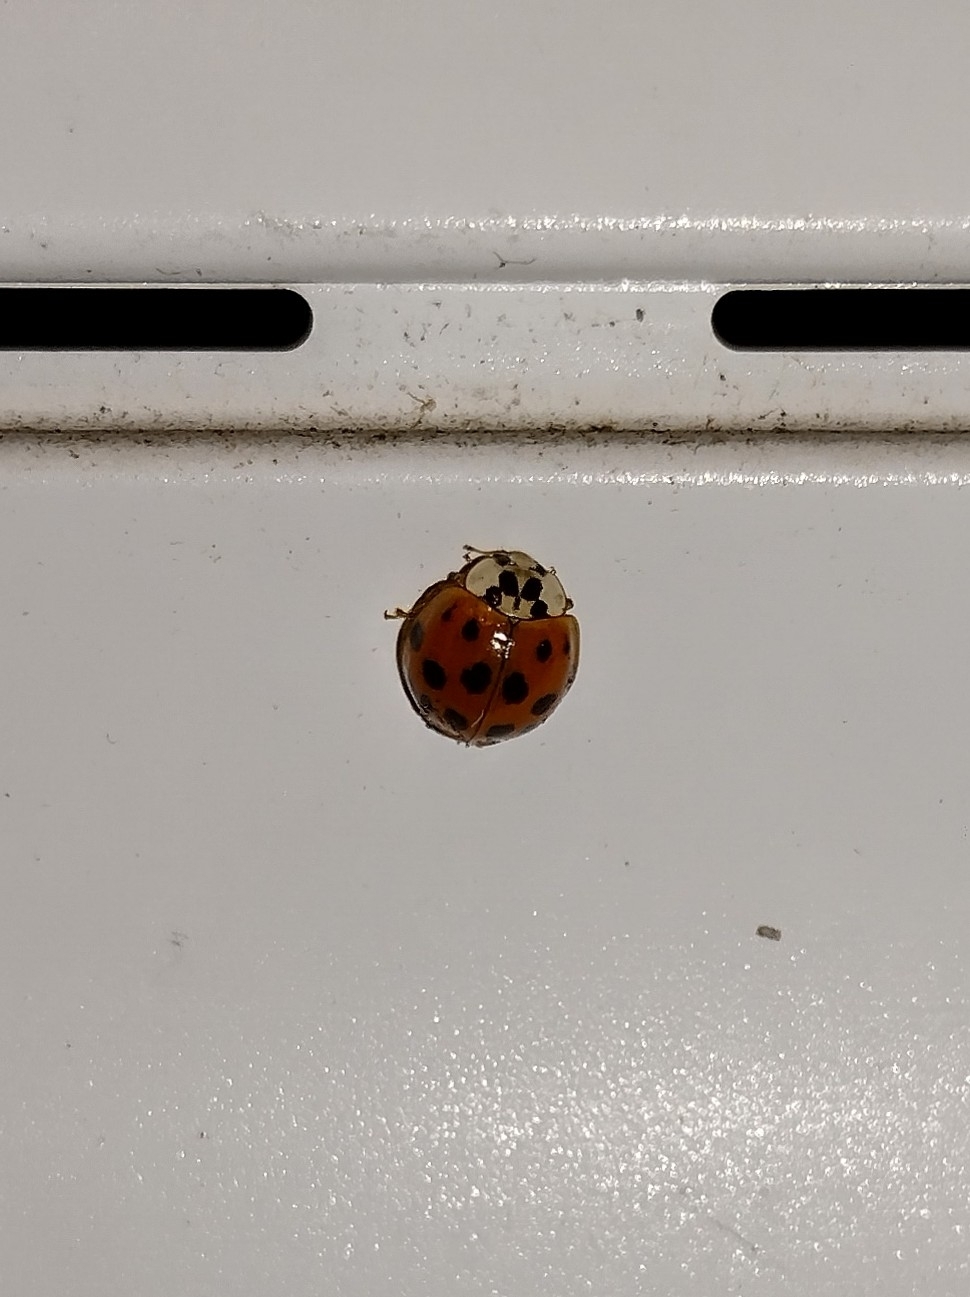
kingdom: Animalia
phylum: Arthropoda
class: Insecta
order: Coleoptera
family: Coccinellidae
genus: Harmonia
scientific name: Harmonia axyridis
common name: Harlequin ladybird
